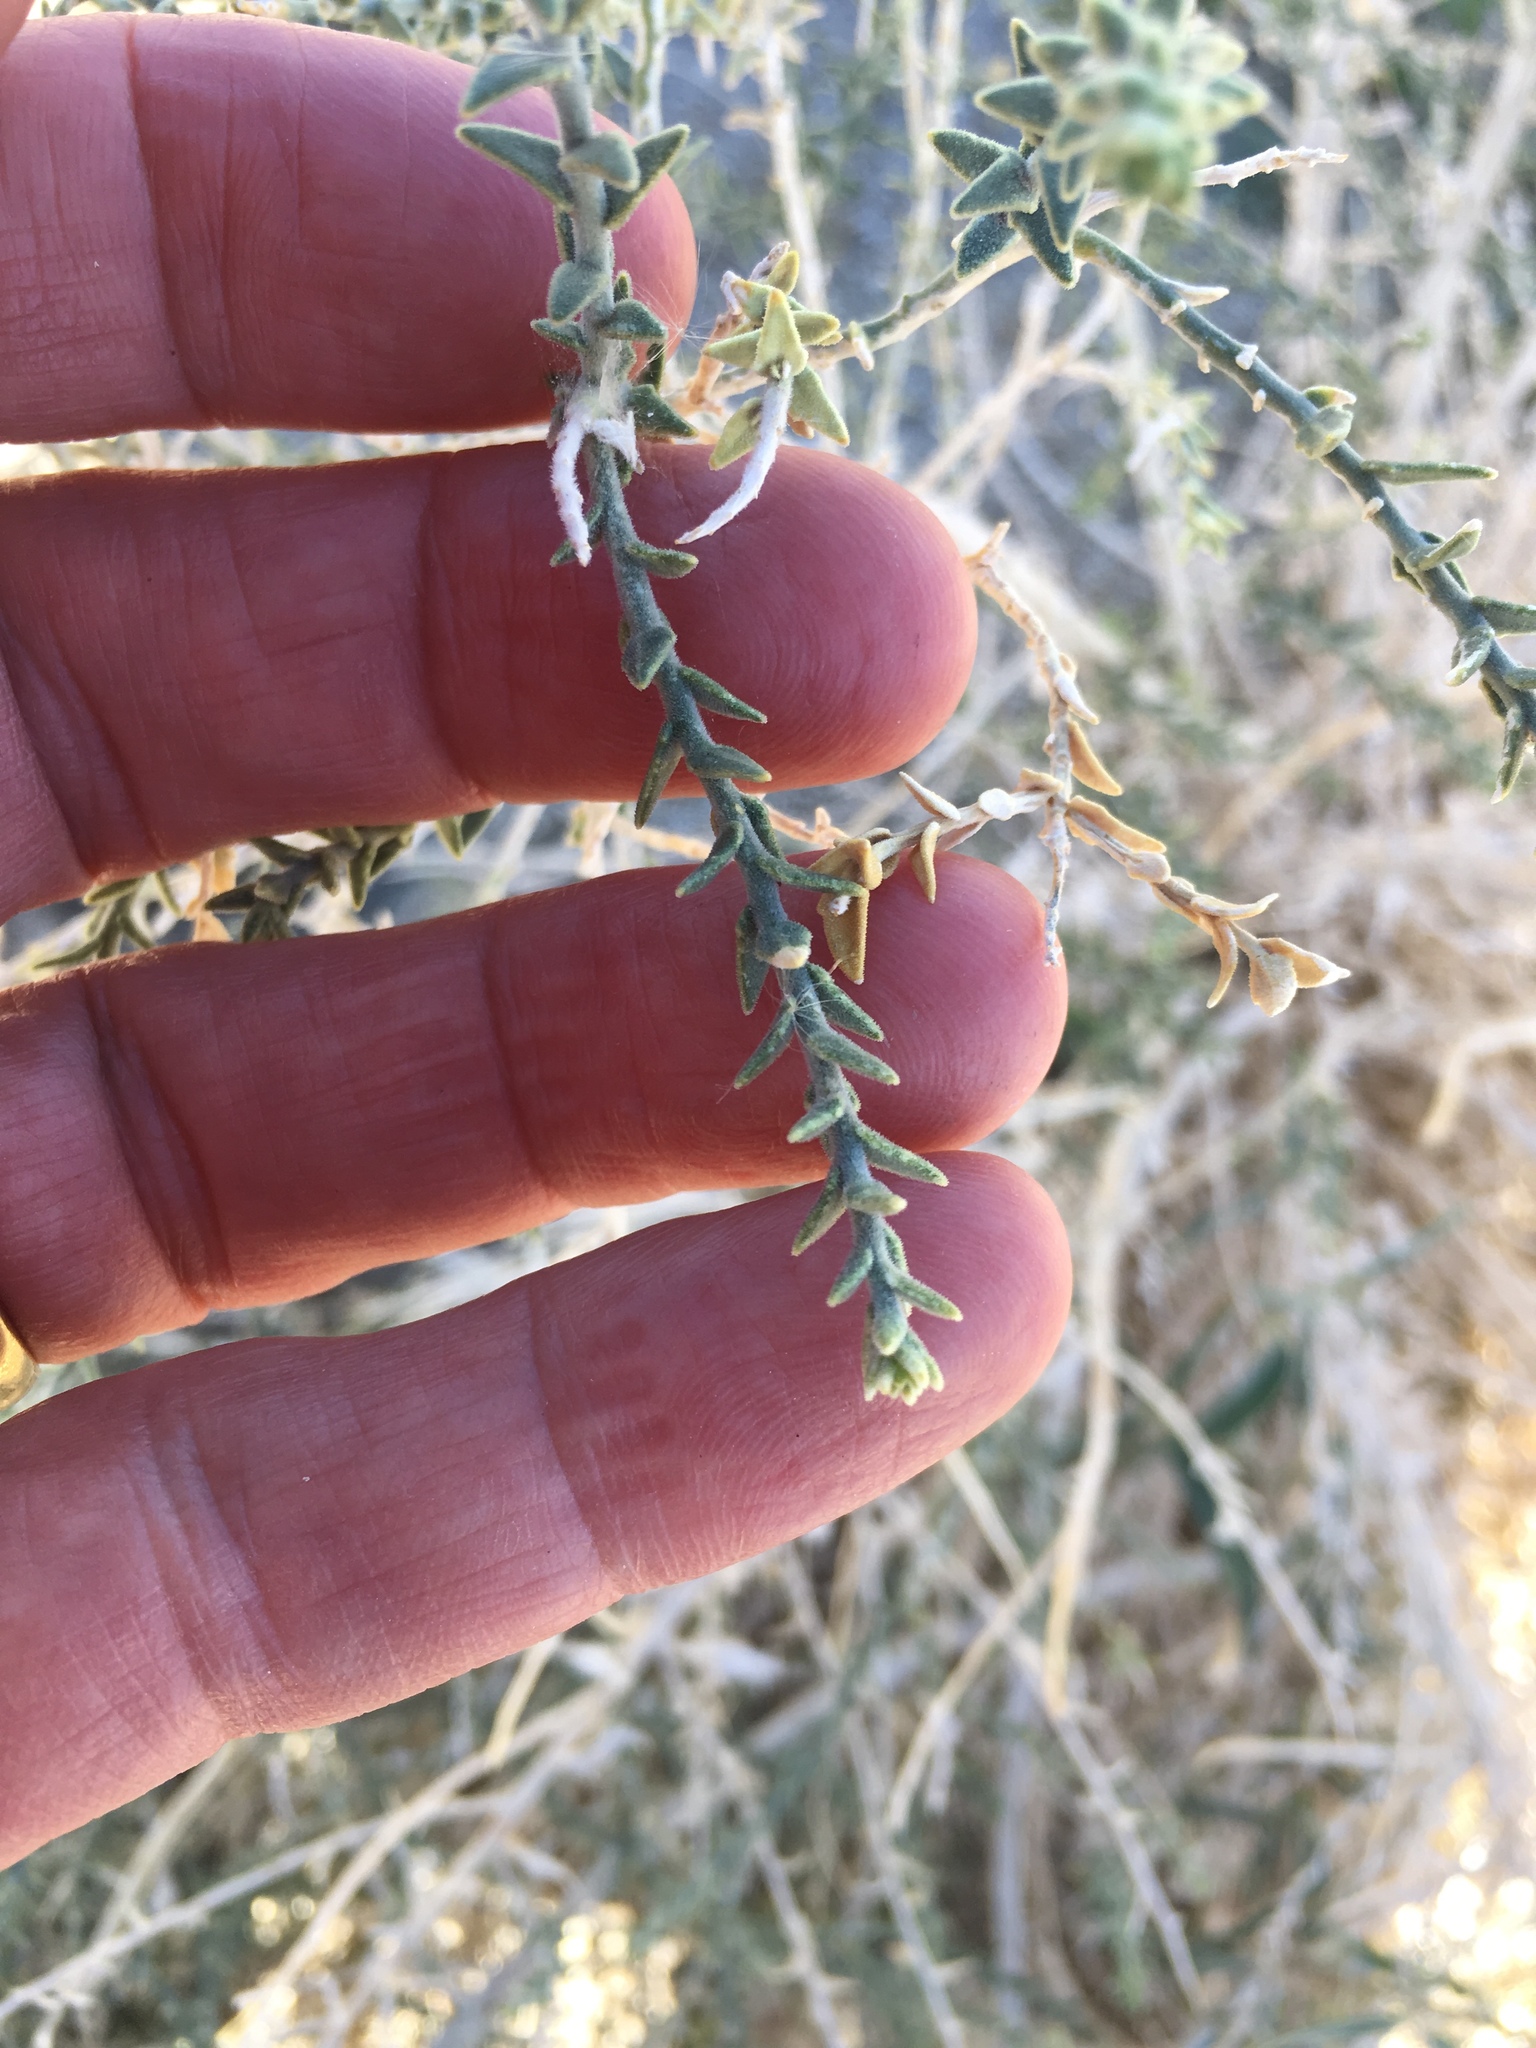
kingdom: Plantae
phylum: Tracheophyta
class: Magnoliopsida
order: Cornales
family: Loasaceae
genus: Petalonyx
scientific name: Petalonyx thurberi
